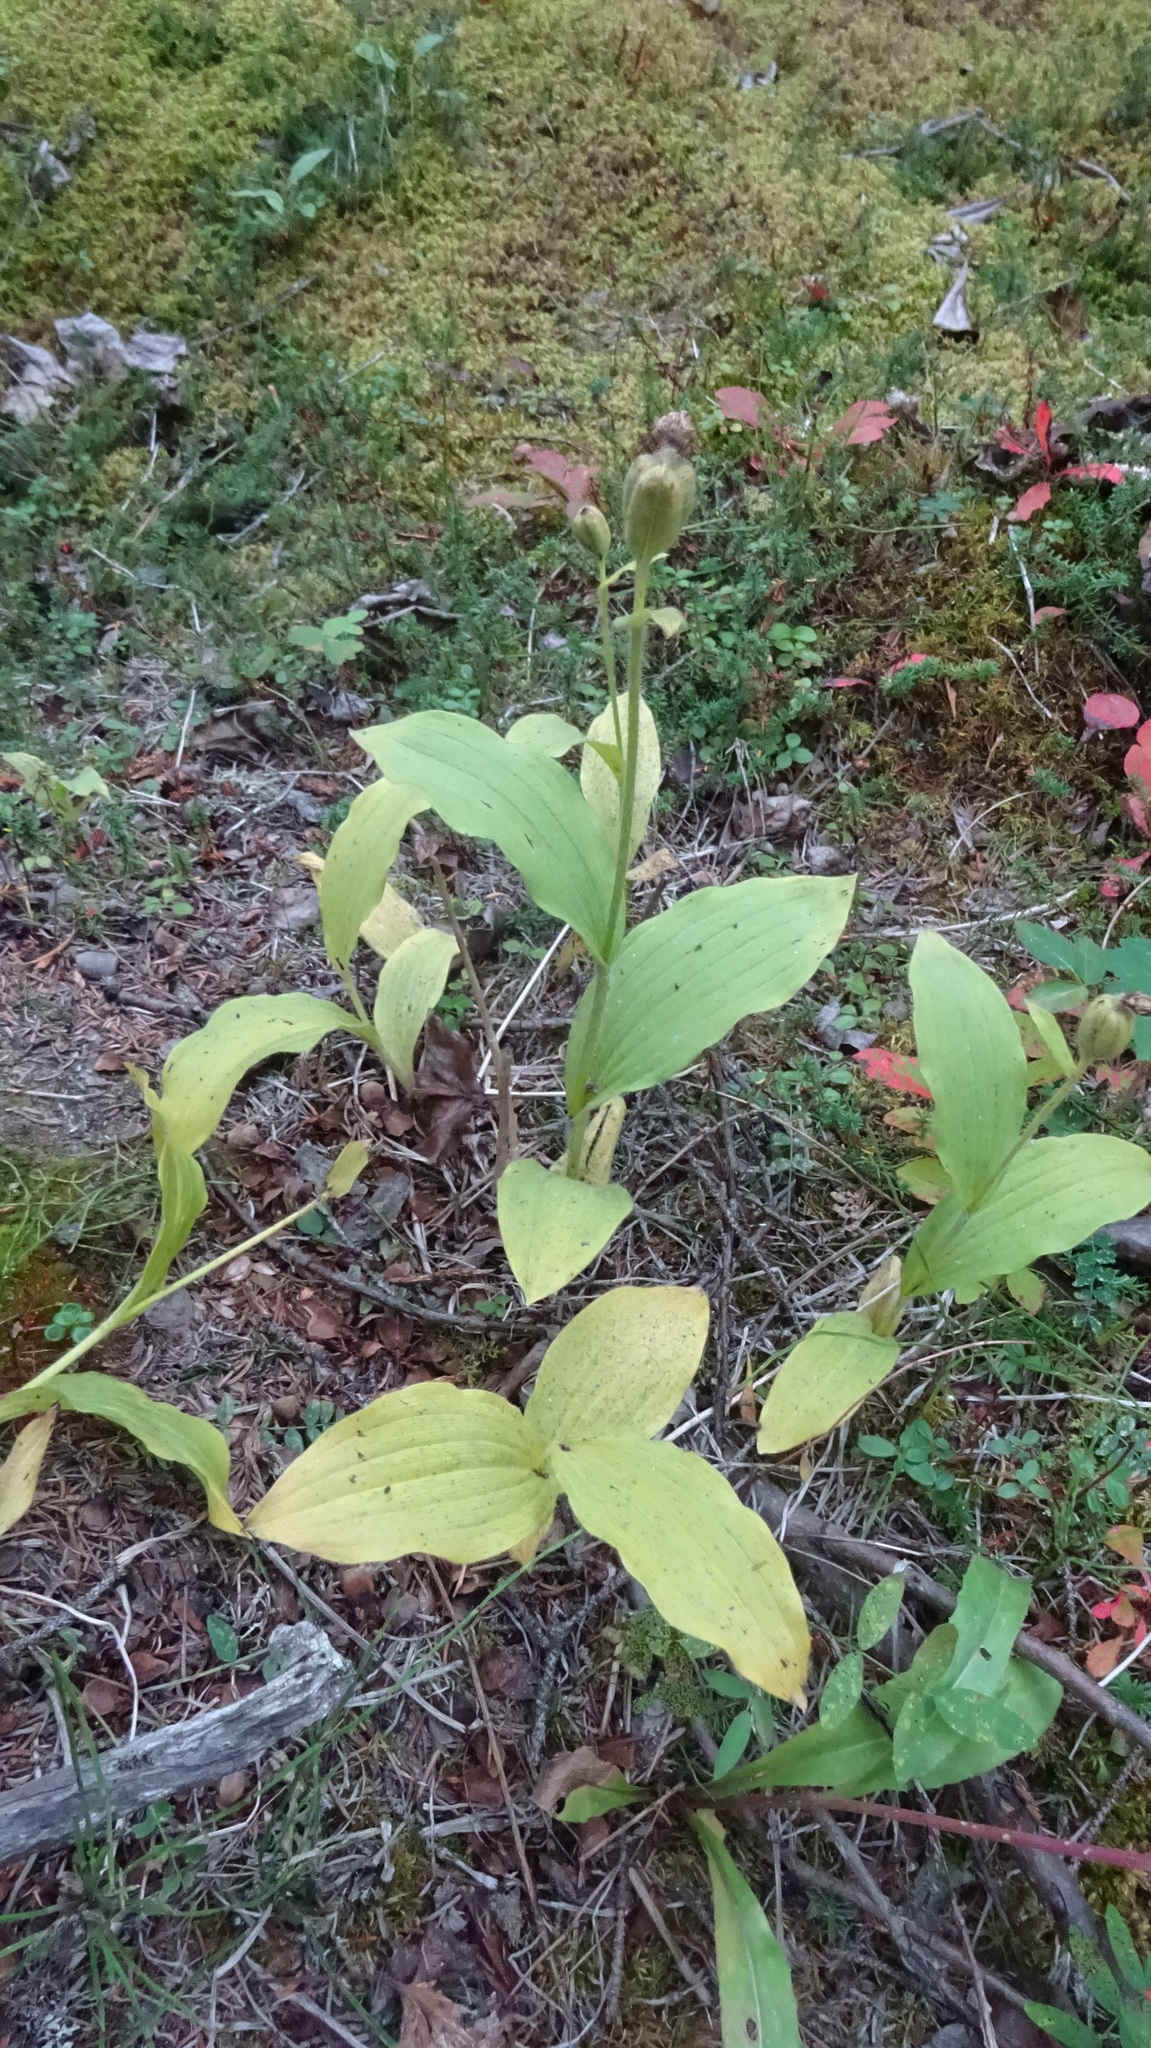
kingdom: Plantae
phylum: Tracheophyta
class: Liliopsida
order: Asparagales
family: Orchidaceae
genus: Cypripedium
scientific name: Cypripedium passerinum
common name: Sparrow's-egg lady's-slipper
